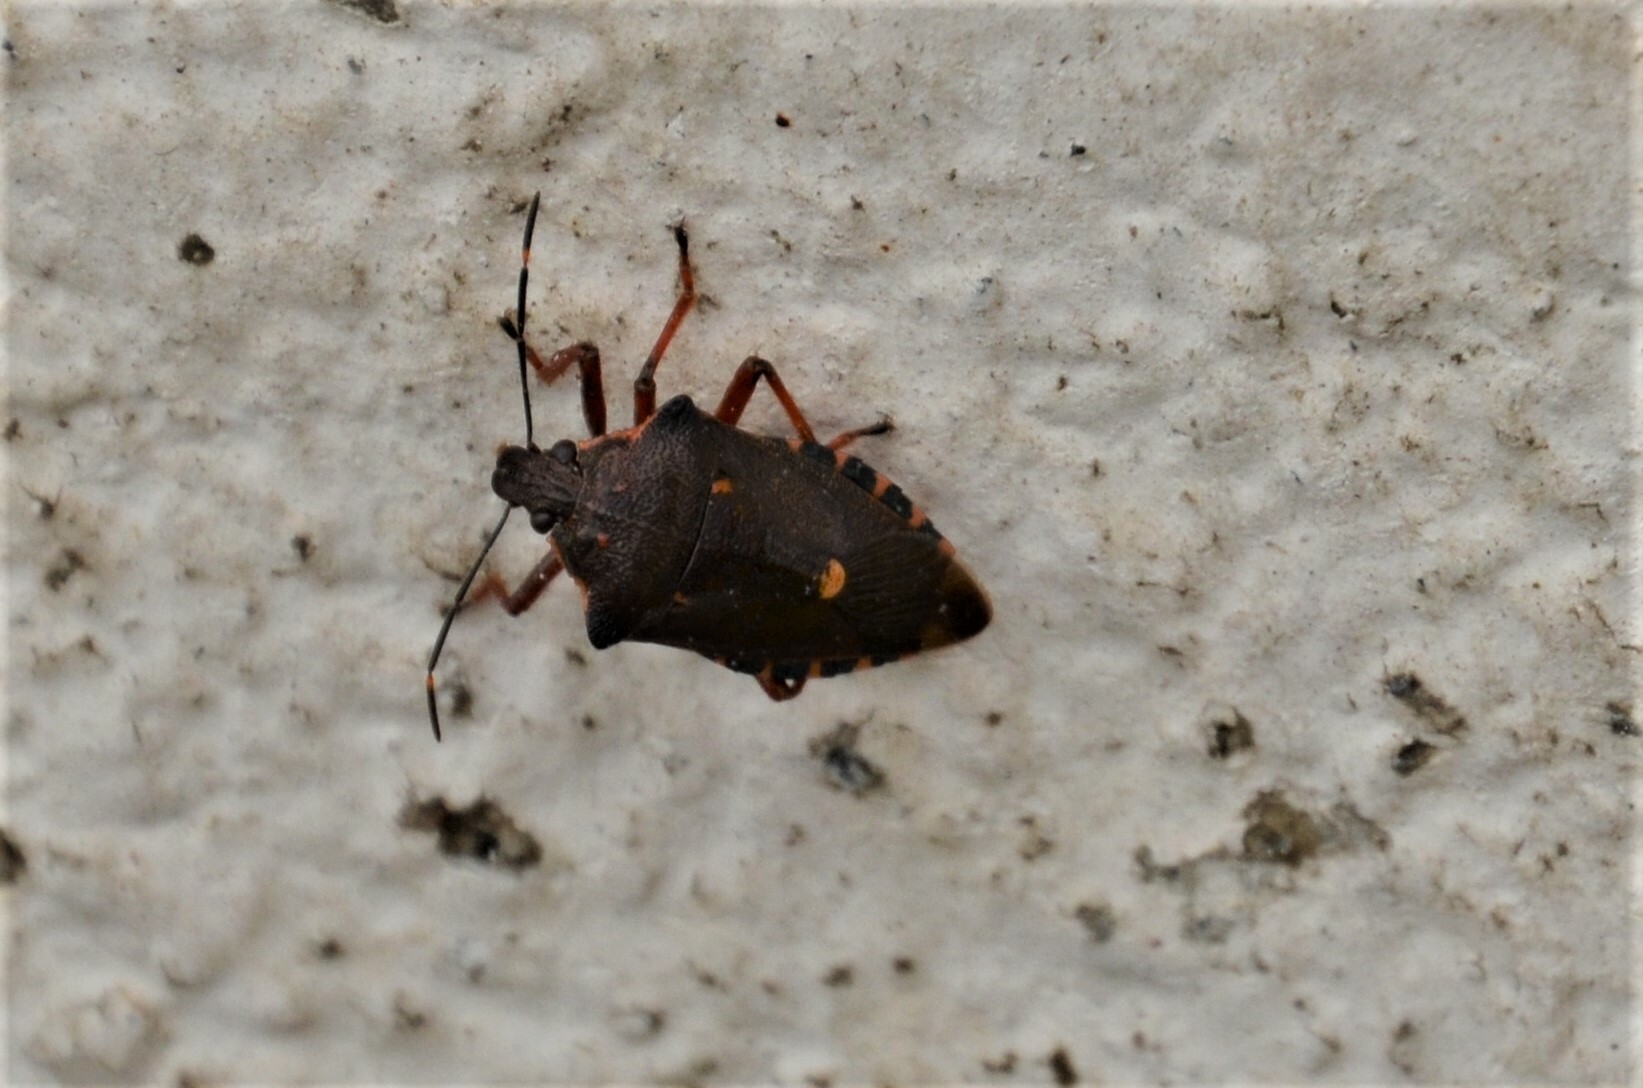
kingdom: Animalia
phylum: Arthropoda
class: Insecta
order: Hemiptera
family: Pentatomidae
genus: Pinthaeus
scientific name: Pinthaeus sanguinipes
